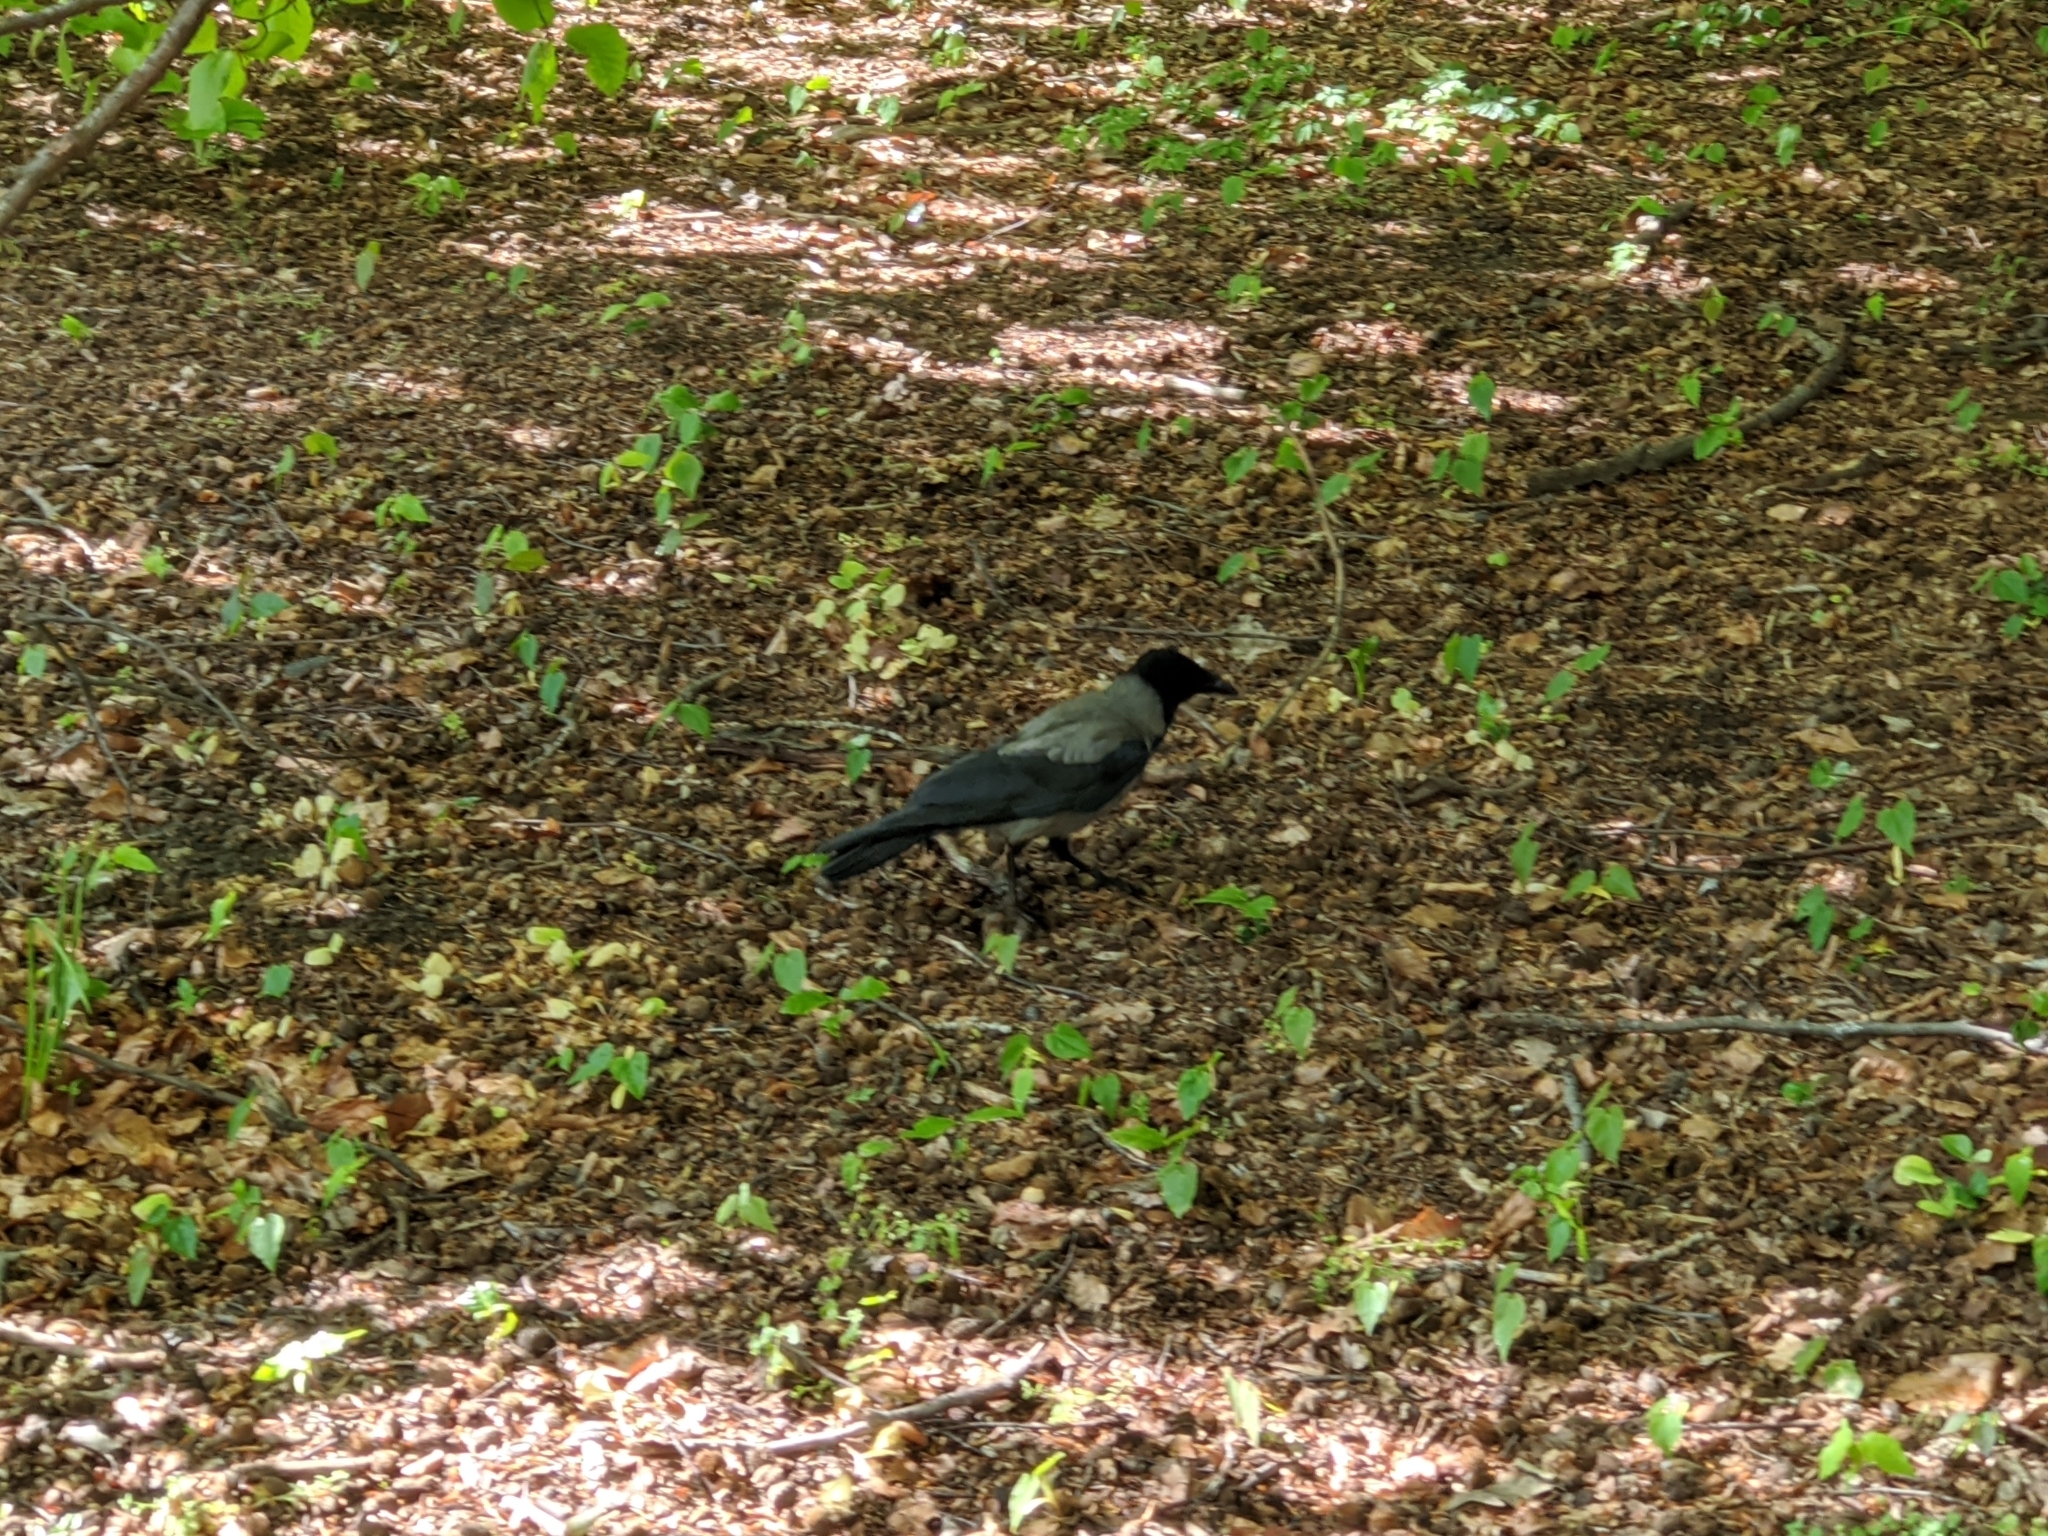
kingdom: Animalia
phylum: Chordata
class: Aves
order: Passeriformes
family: Corvidae
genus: Corvus
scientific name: Corvus
